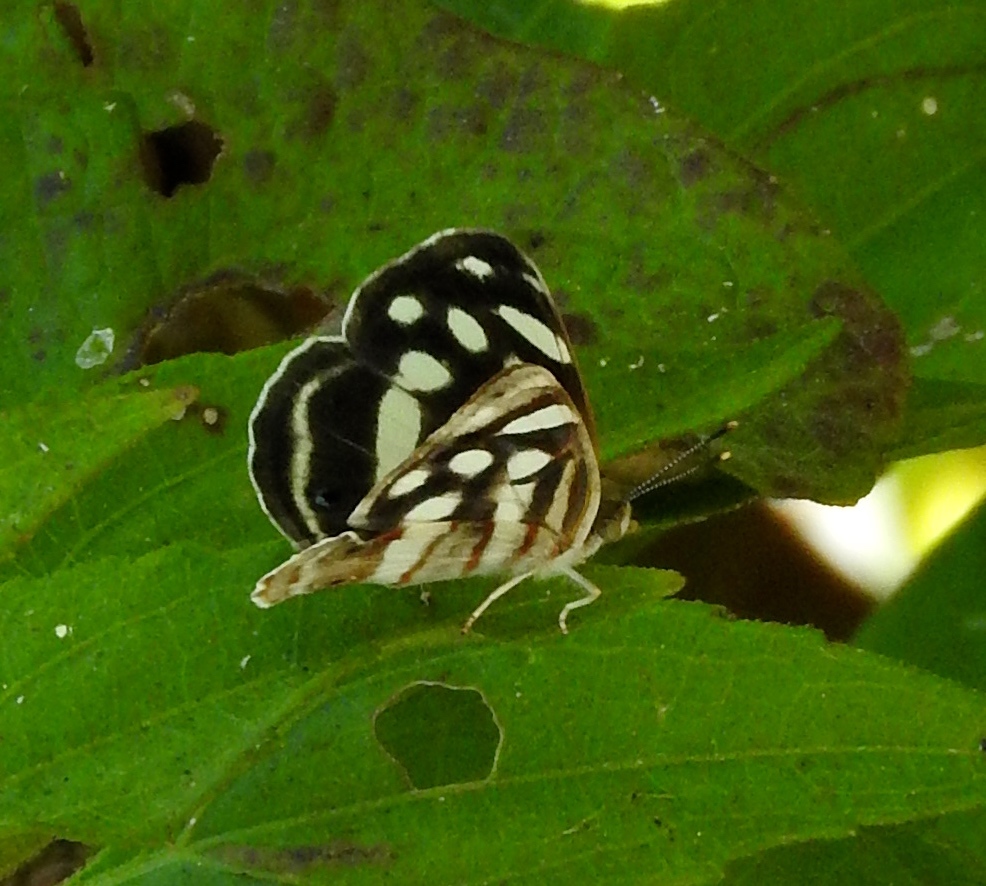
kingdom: Animalia
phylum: Arthropoda
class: Insecta
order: Lepidoptera
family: Nymphalidae
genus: Dynamine
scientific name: Dynamine mylitta
